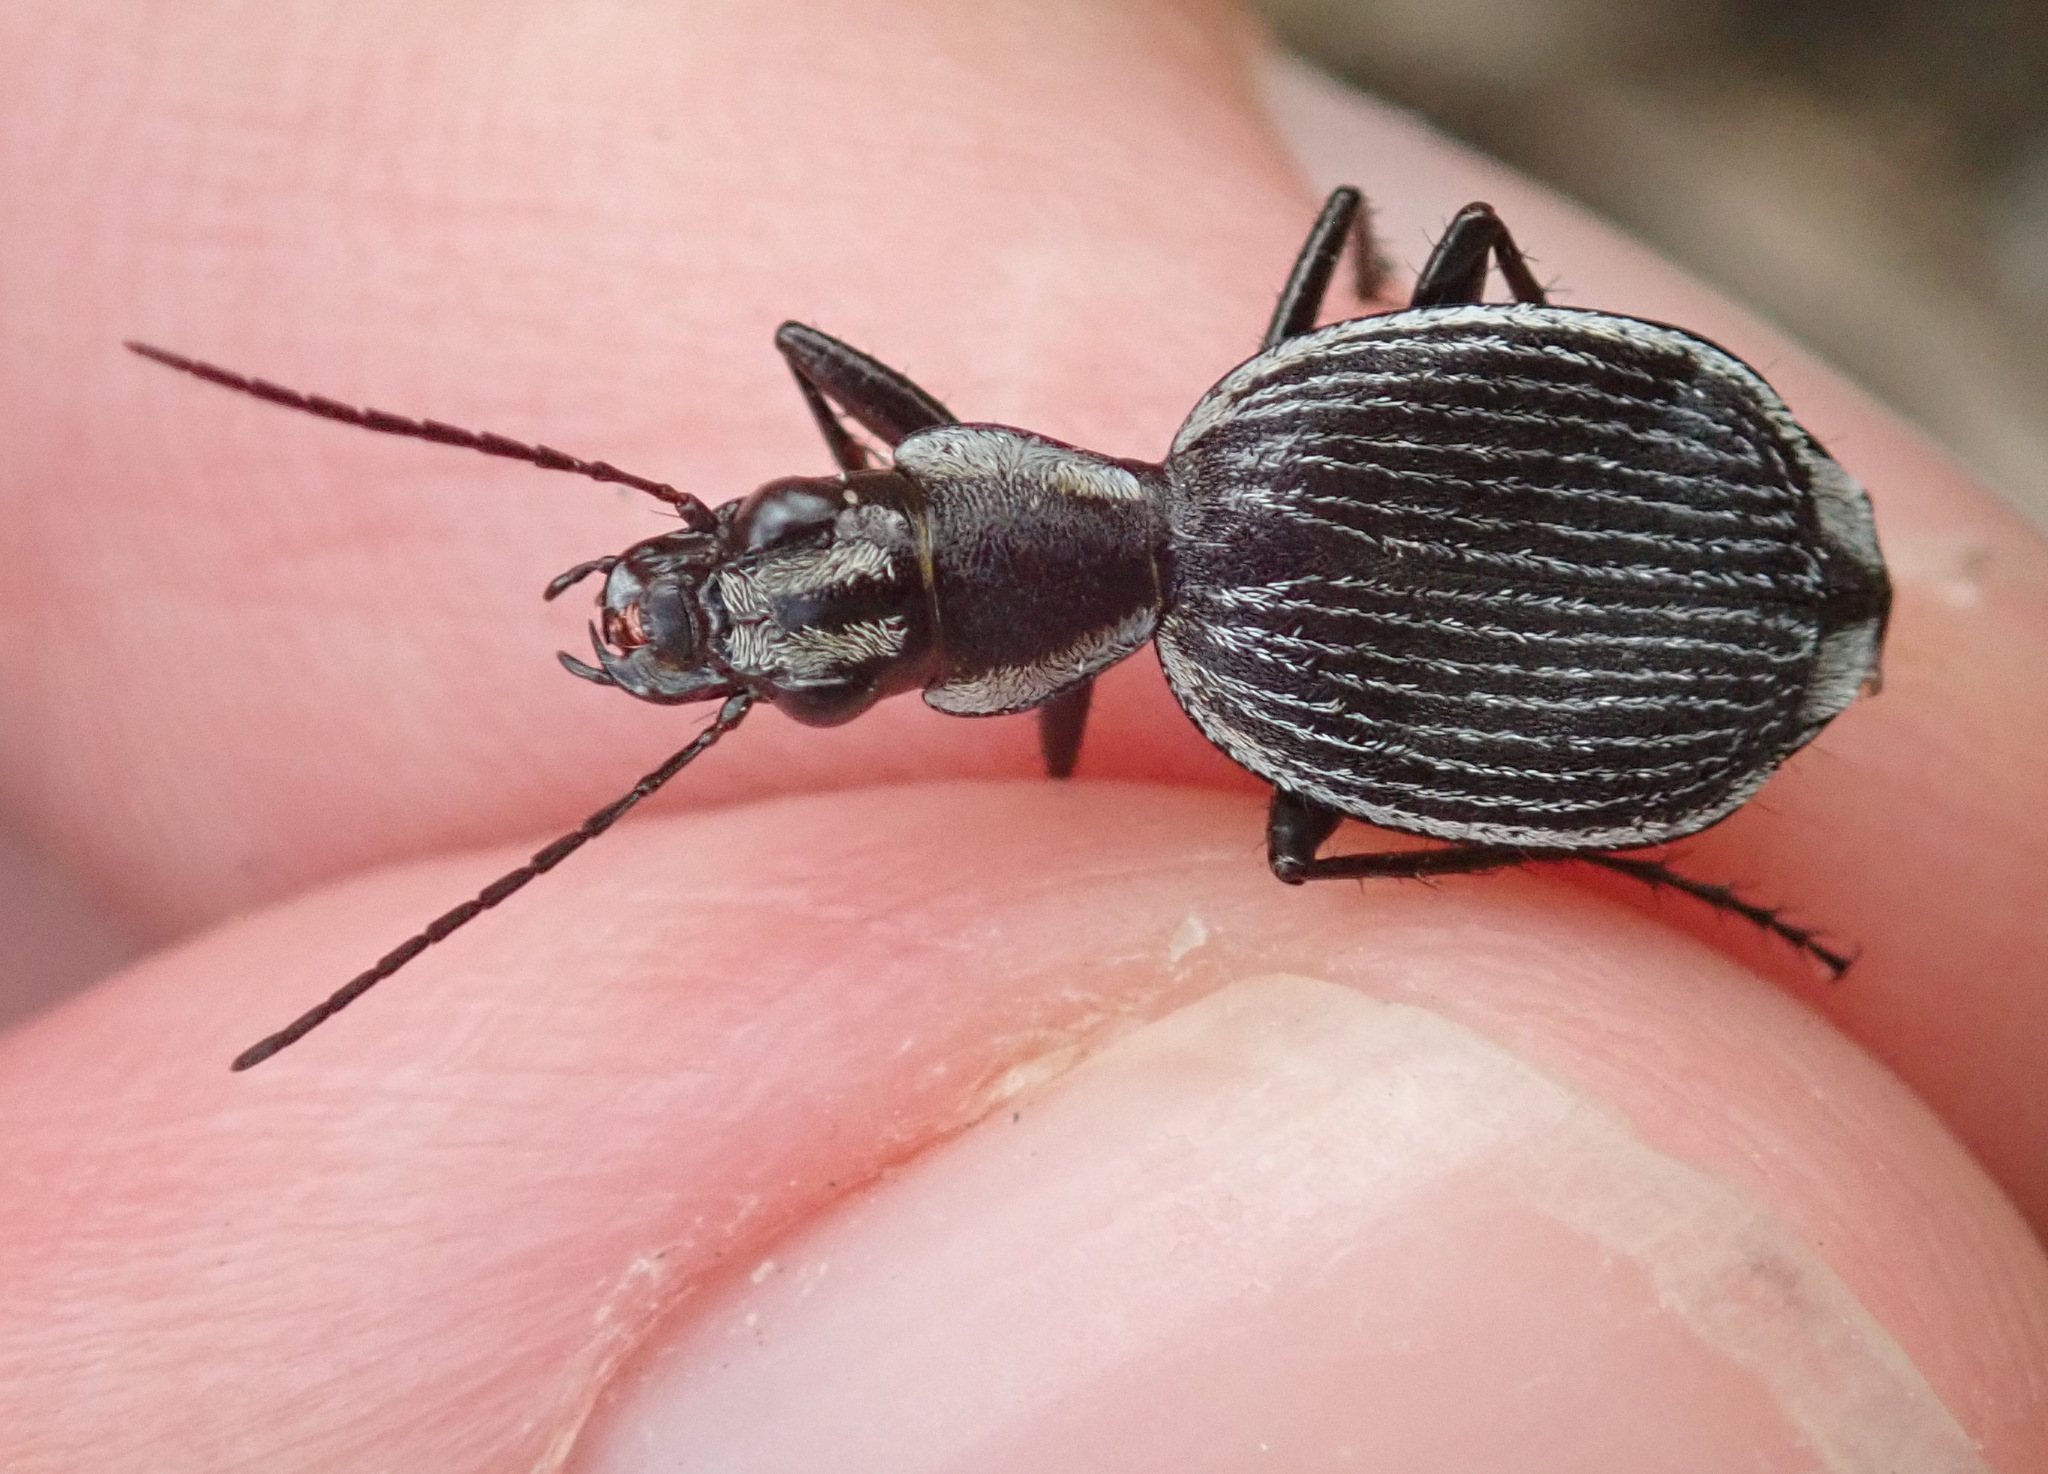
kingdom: Animalia
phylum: Arthropoda
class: Insecta
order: Coleoptera
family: Carabidae
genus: Graphipterus
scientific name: Graphipterus lineolatus
